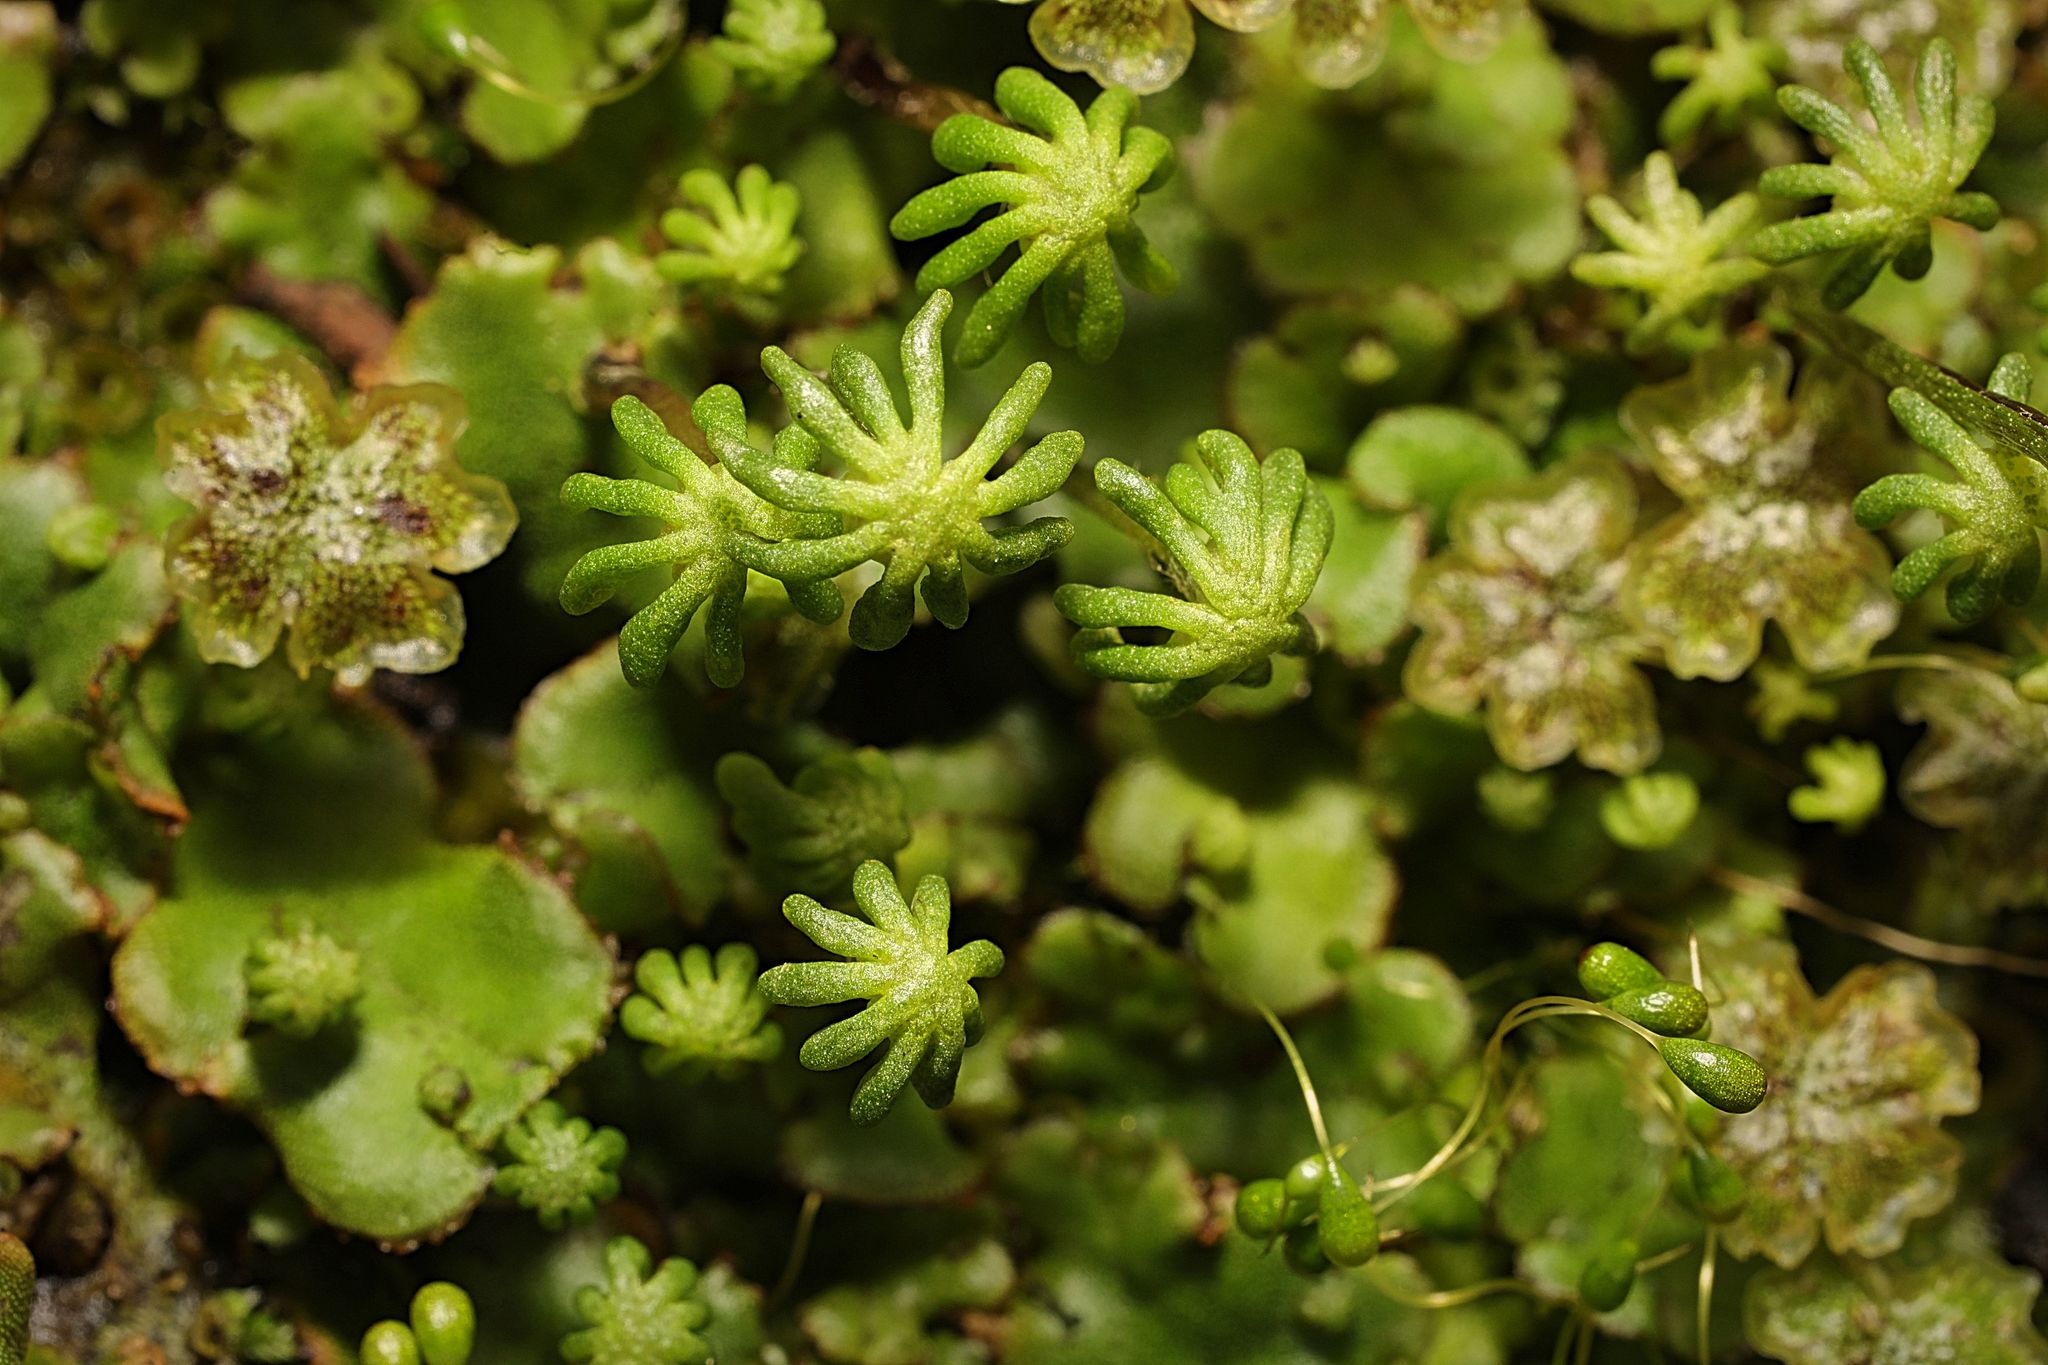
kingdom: Plantae
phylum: Marchantiophyta
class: Marchantiopsida
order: Marchantiales
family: Marchantiaceae
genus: Marchantia
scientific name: Marchantia polymorpha
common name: Common liverwort
